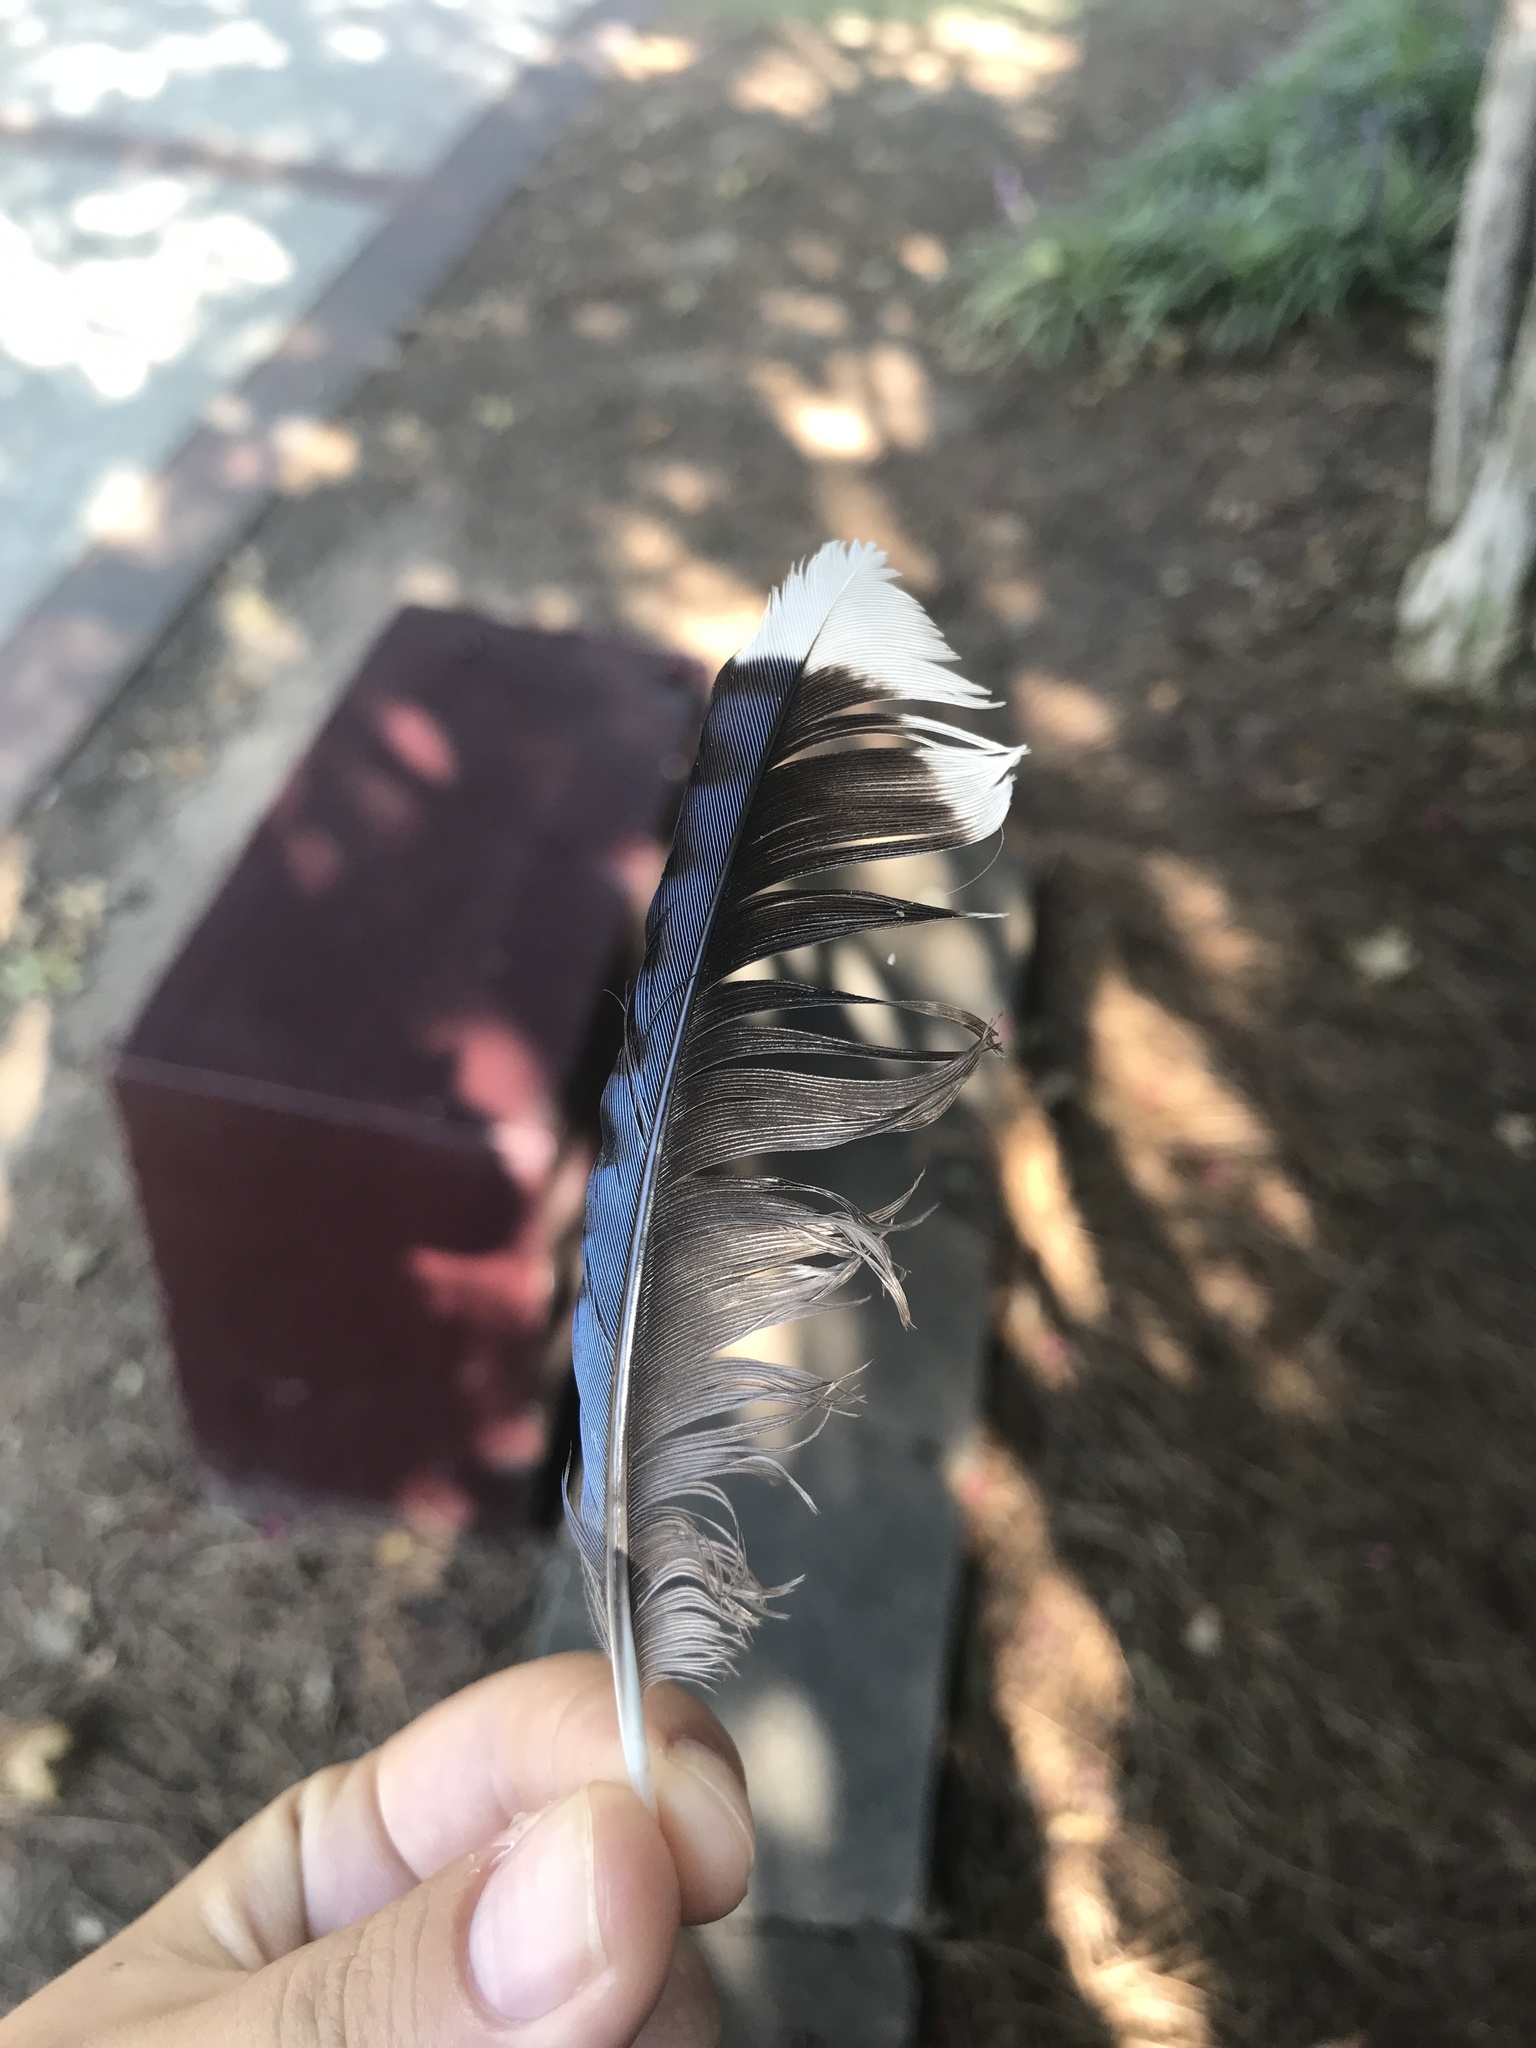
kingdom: Animalia
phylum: Chordata
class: Aves
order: Passeriformes
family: Corvidae
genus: Cyanocitta
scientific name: Cyanocitta cristata
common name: Blue jay
